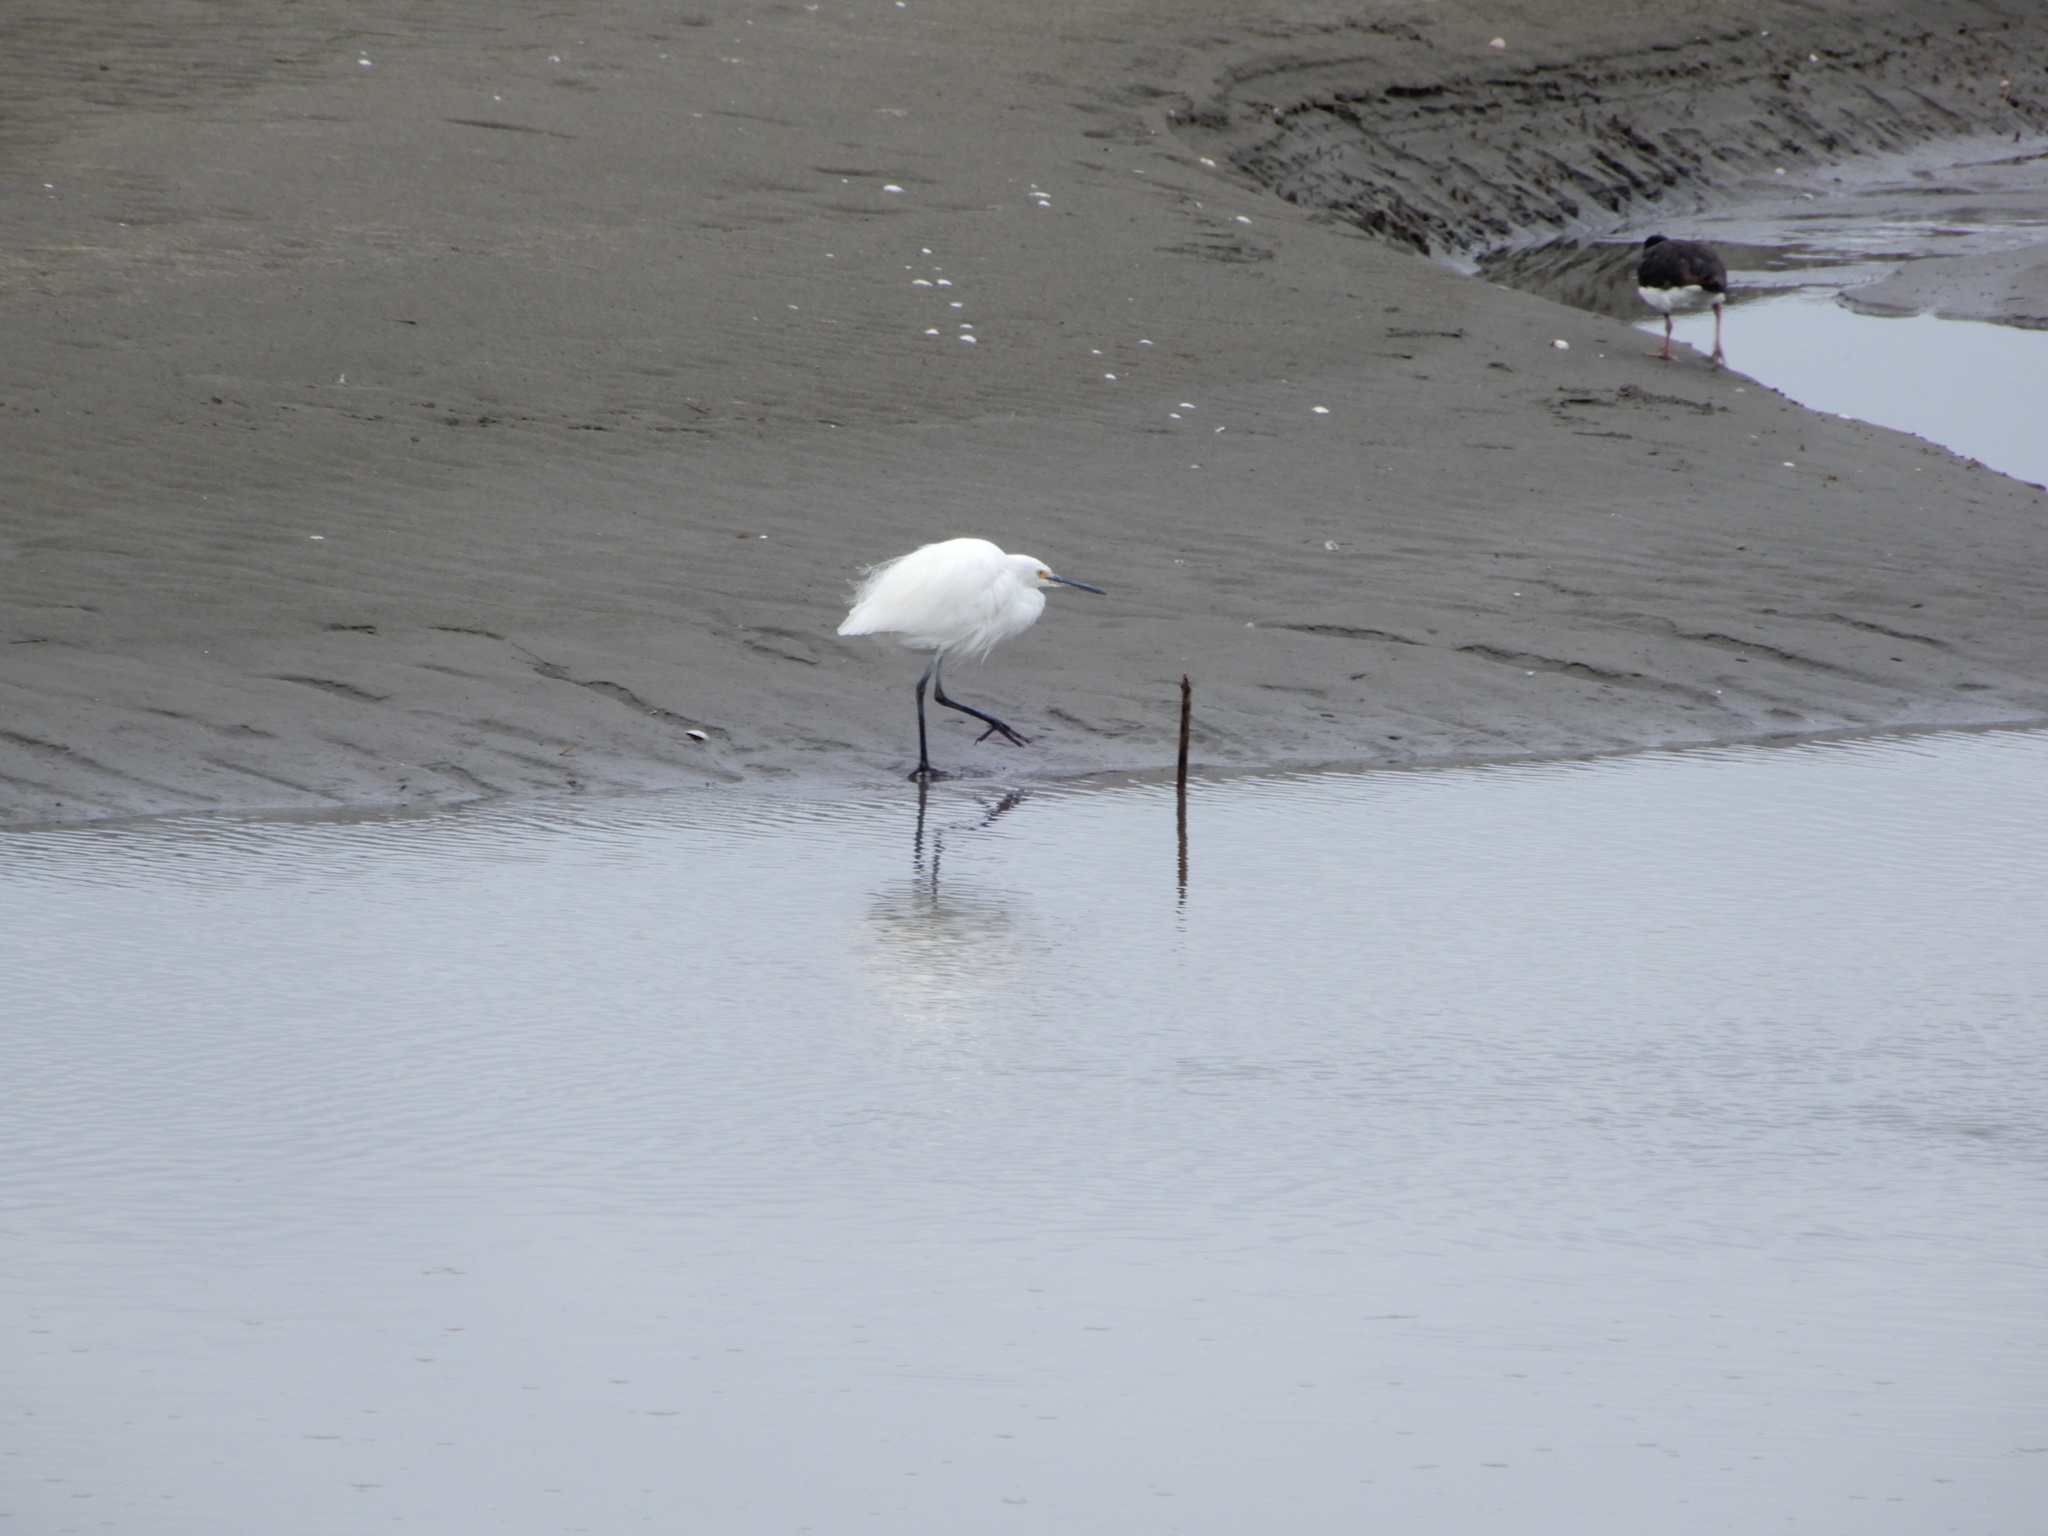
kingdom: Animalia
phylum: Chordata
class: Aves
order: Pelecaniformes
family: Ardeidae
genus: Egretta
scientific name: Egretta garzetta
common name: Little egret
